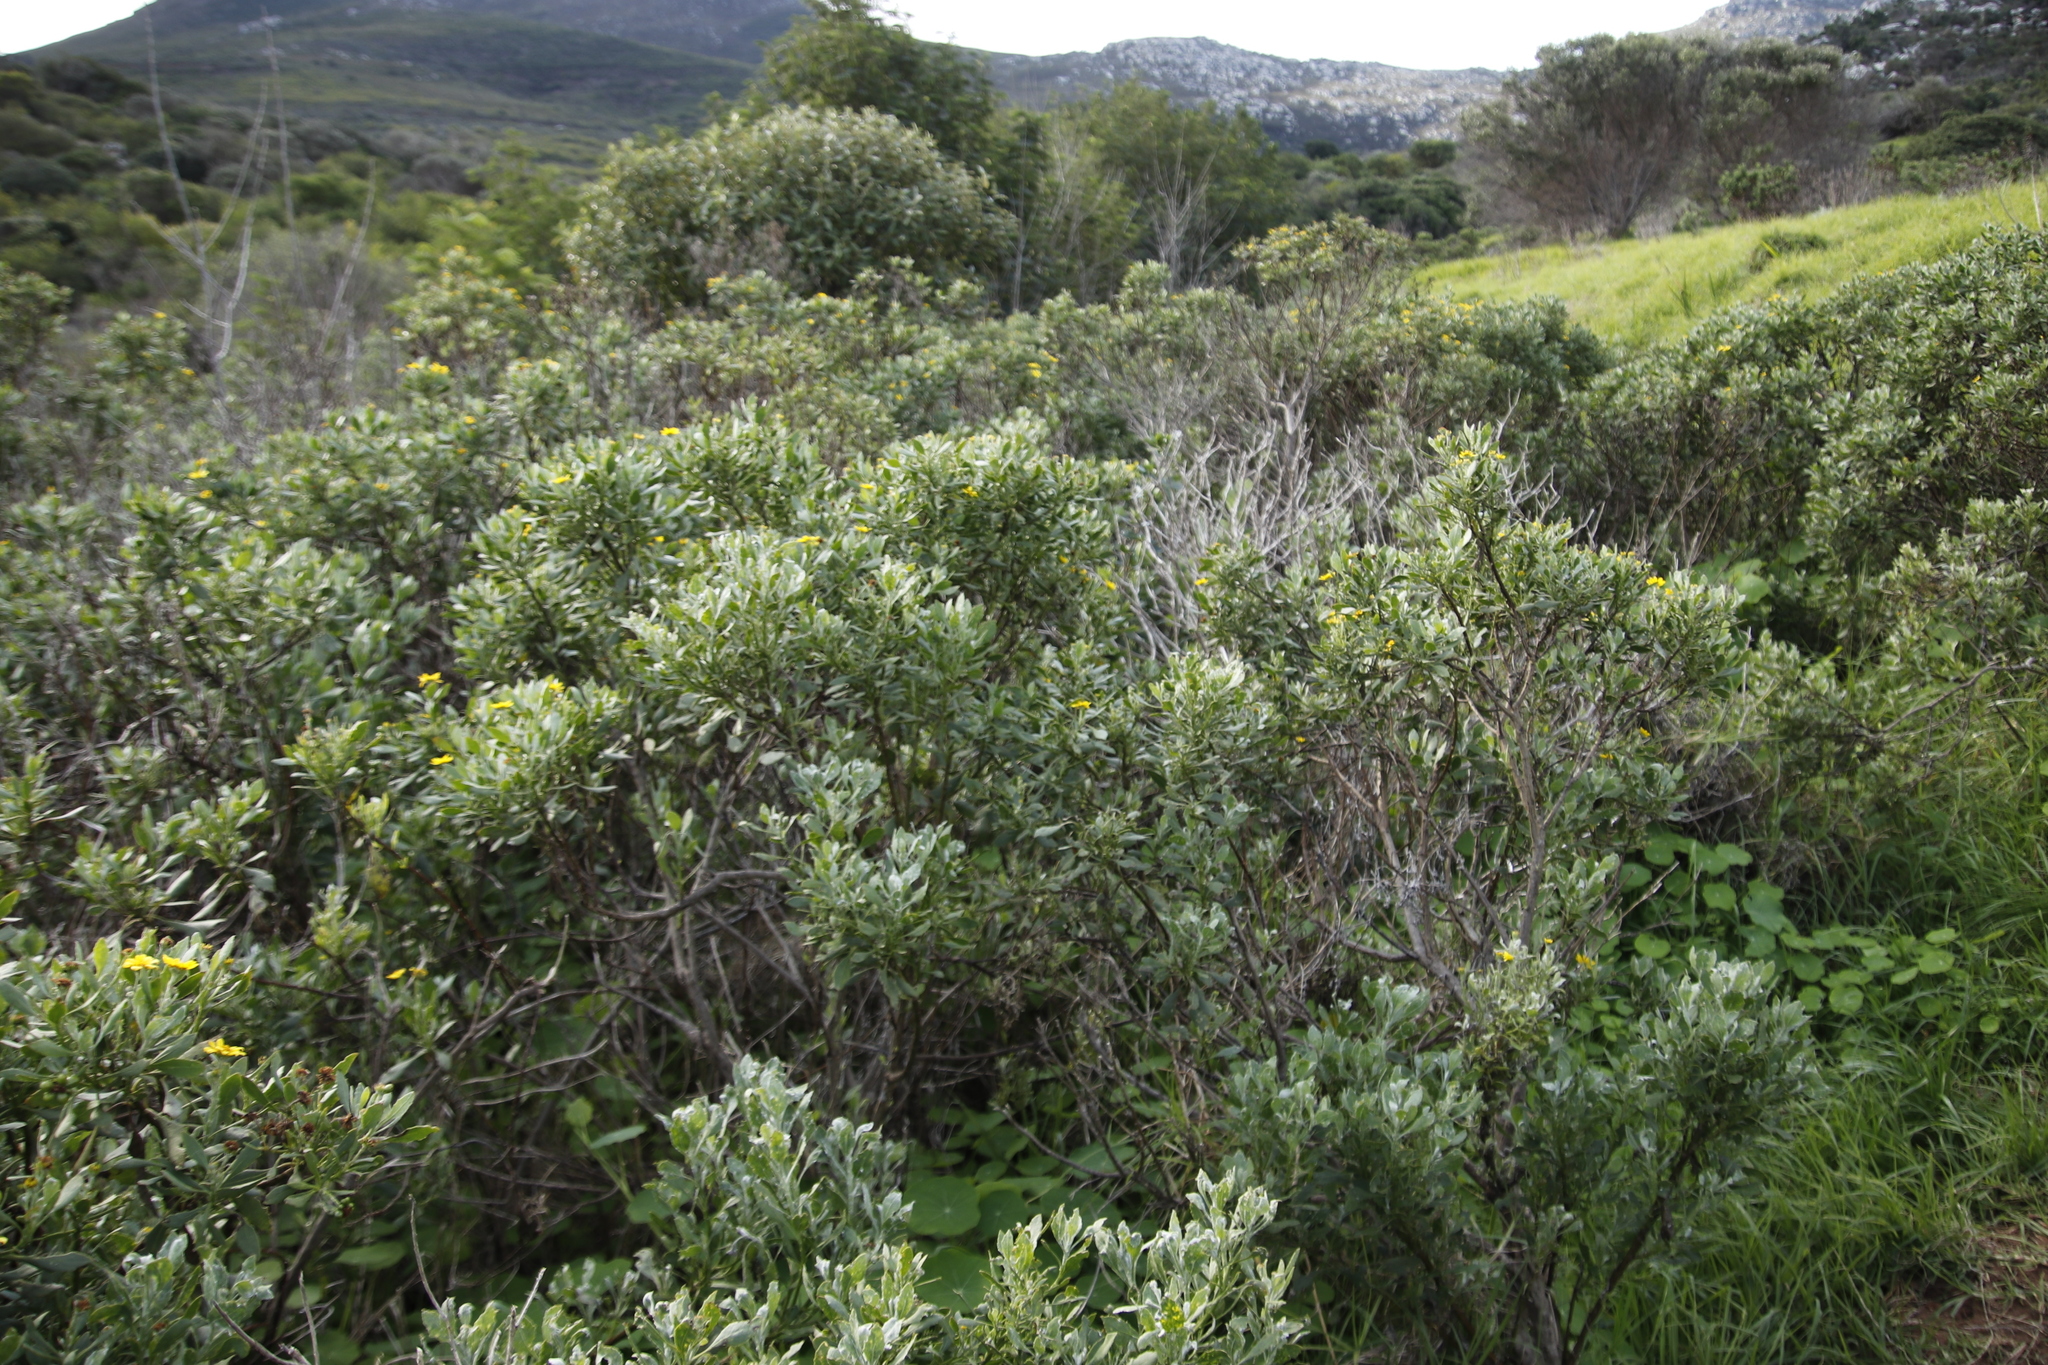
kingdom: Plantae
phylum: Tracheophyta
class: Magnoliopsida
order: Asterales
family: Asteraceae
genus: Osteospermum
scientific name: Osteospermum moniliferum
